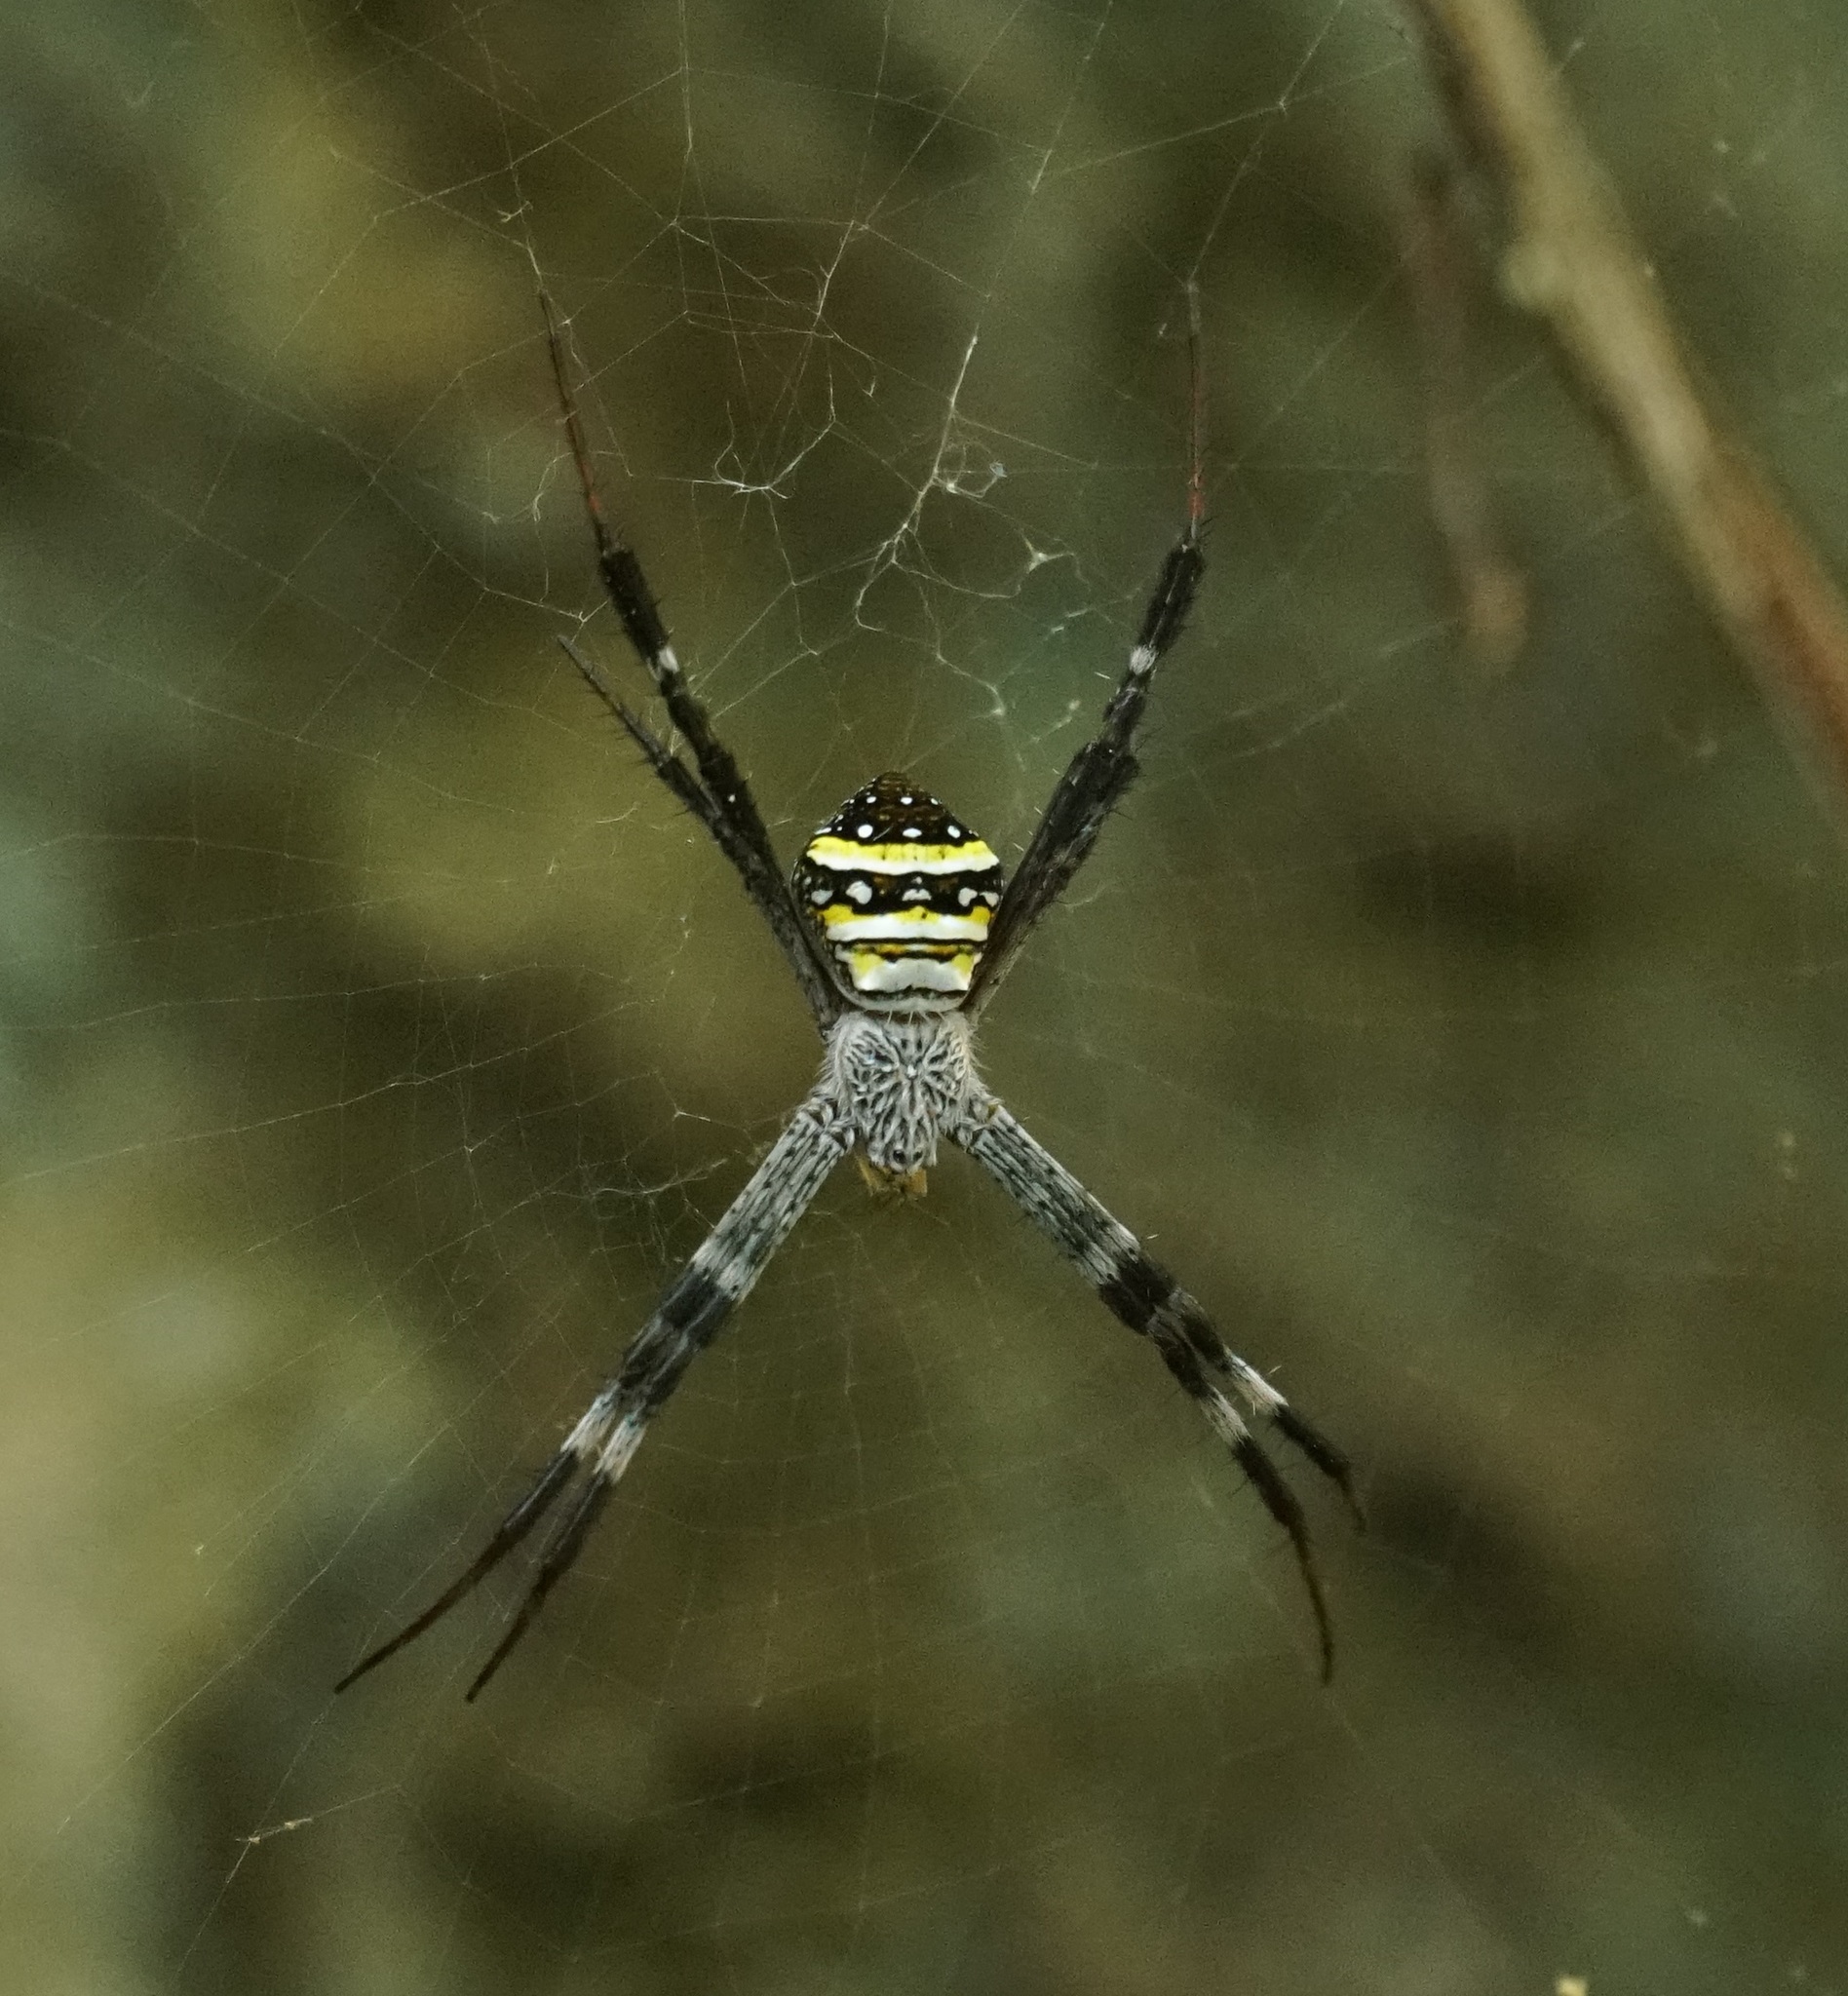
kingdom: Animalia
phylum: Arthropoda
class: Arachnida
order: Araneae
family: Araneidae
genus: Argiope
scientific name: Argiope aetherea
